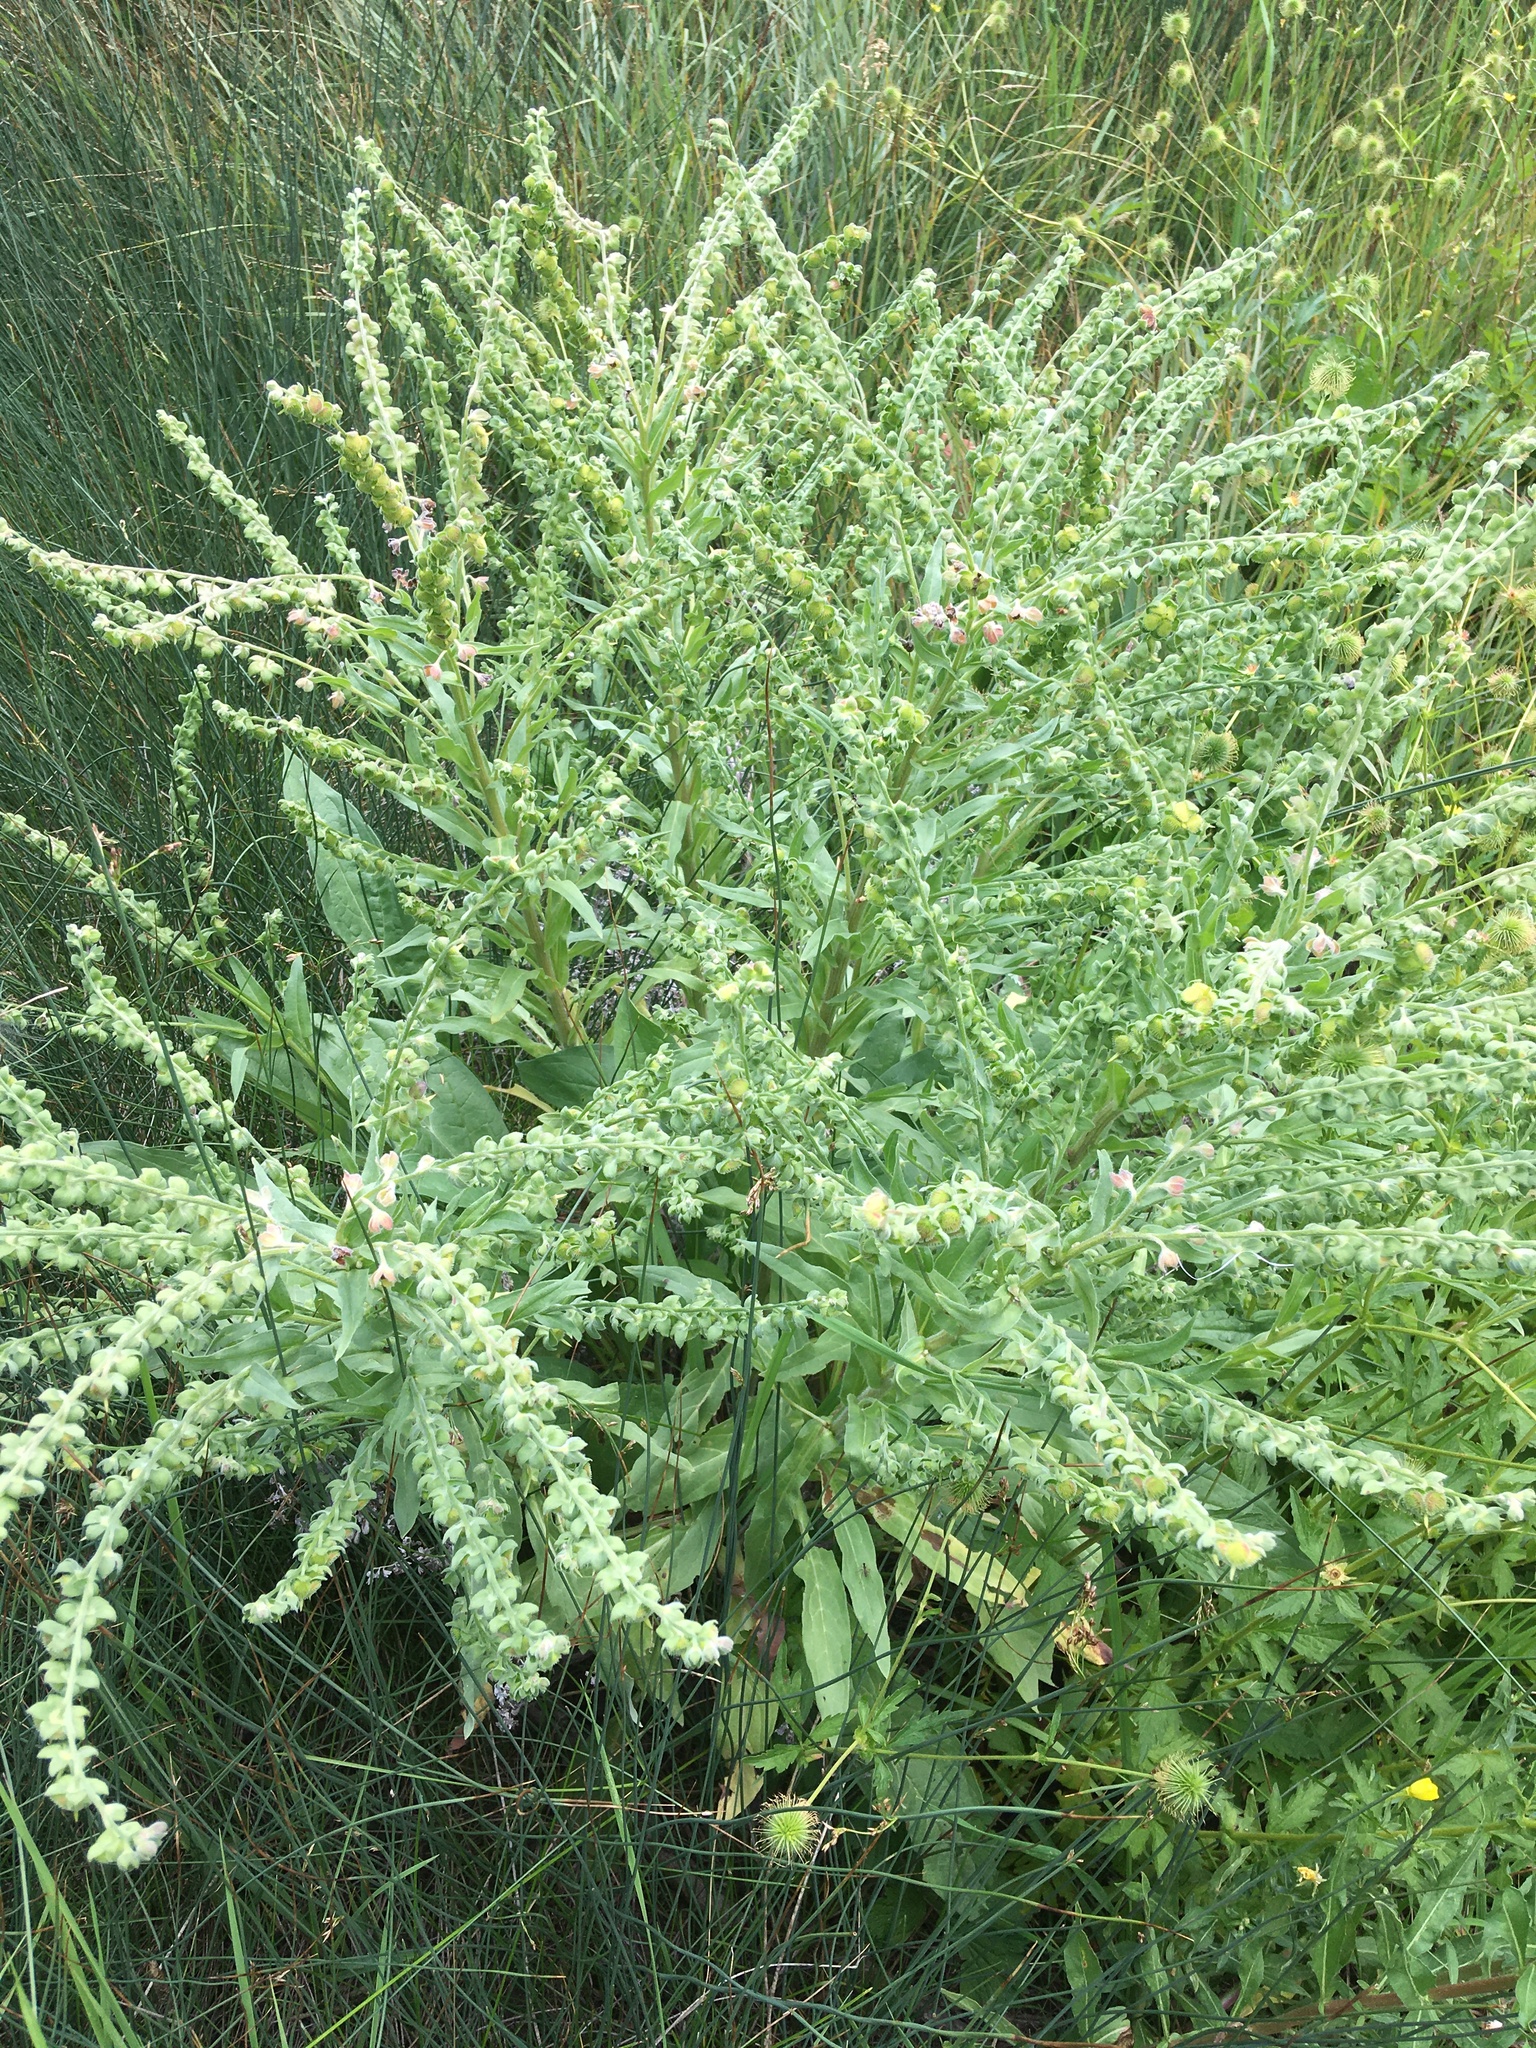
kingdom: Plantae
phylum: Tracheophyta
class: Magnoliopsida
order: Boraginales
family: Boraginaceae
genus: Cynoglossum
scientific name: Cynoglossum officinale
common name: Hound's-tongue
